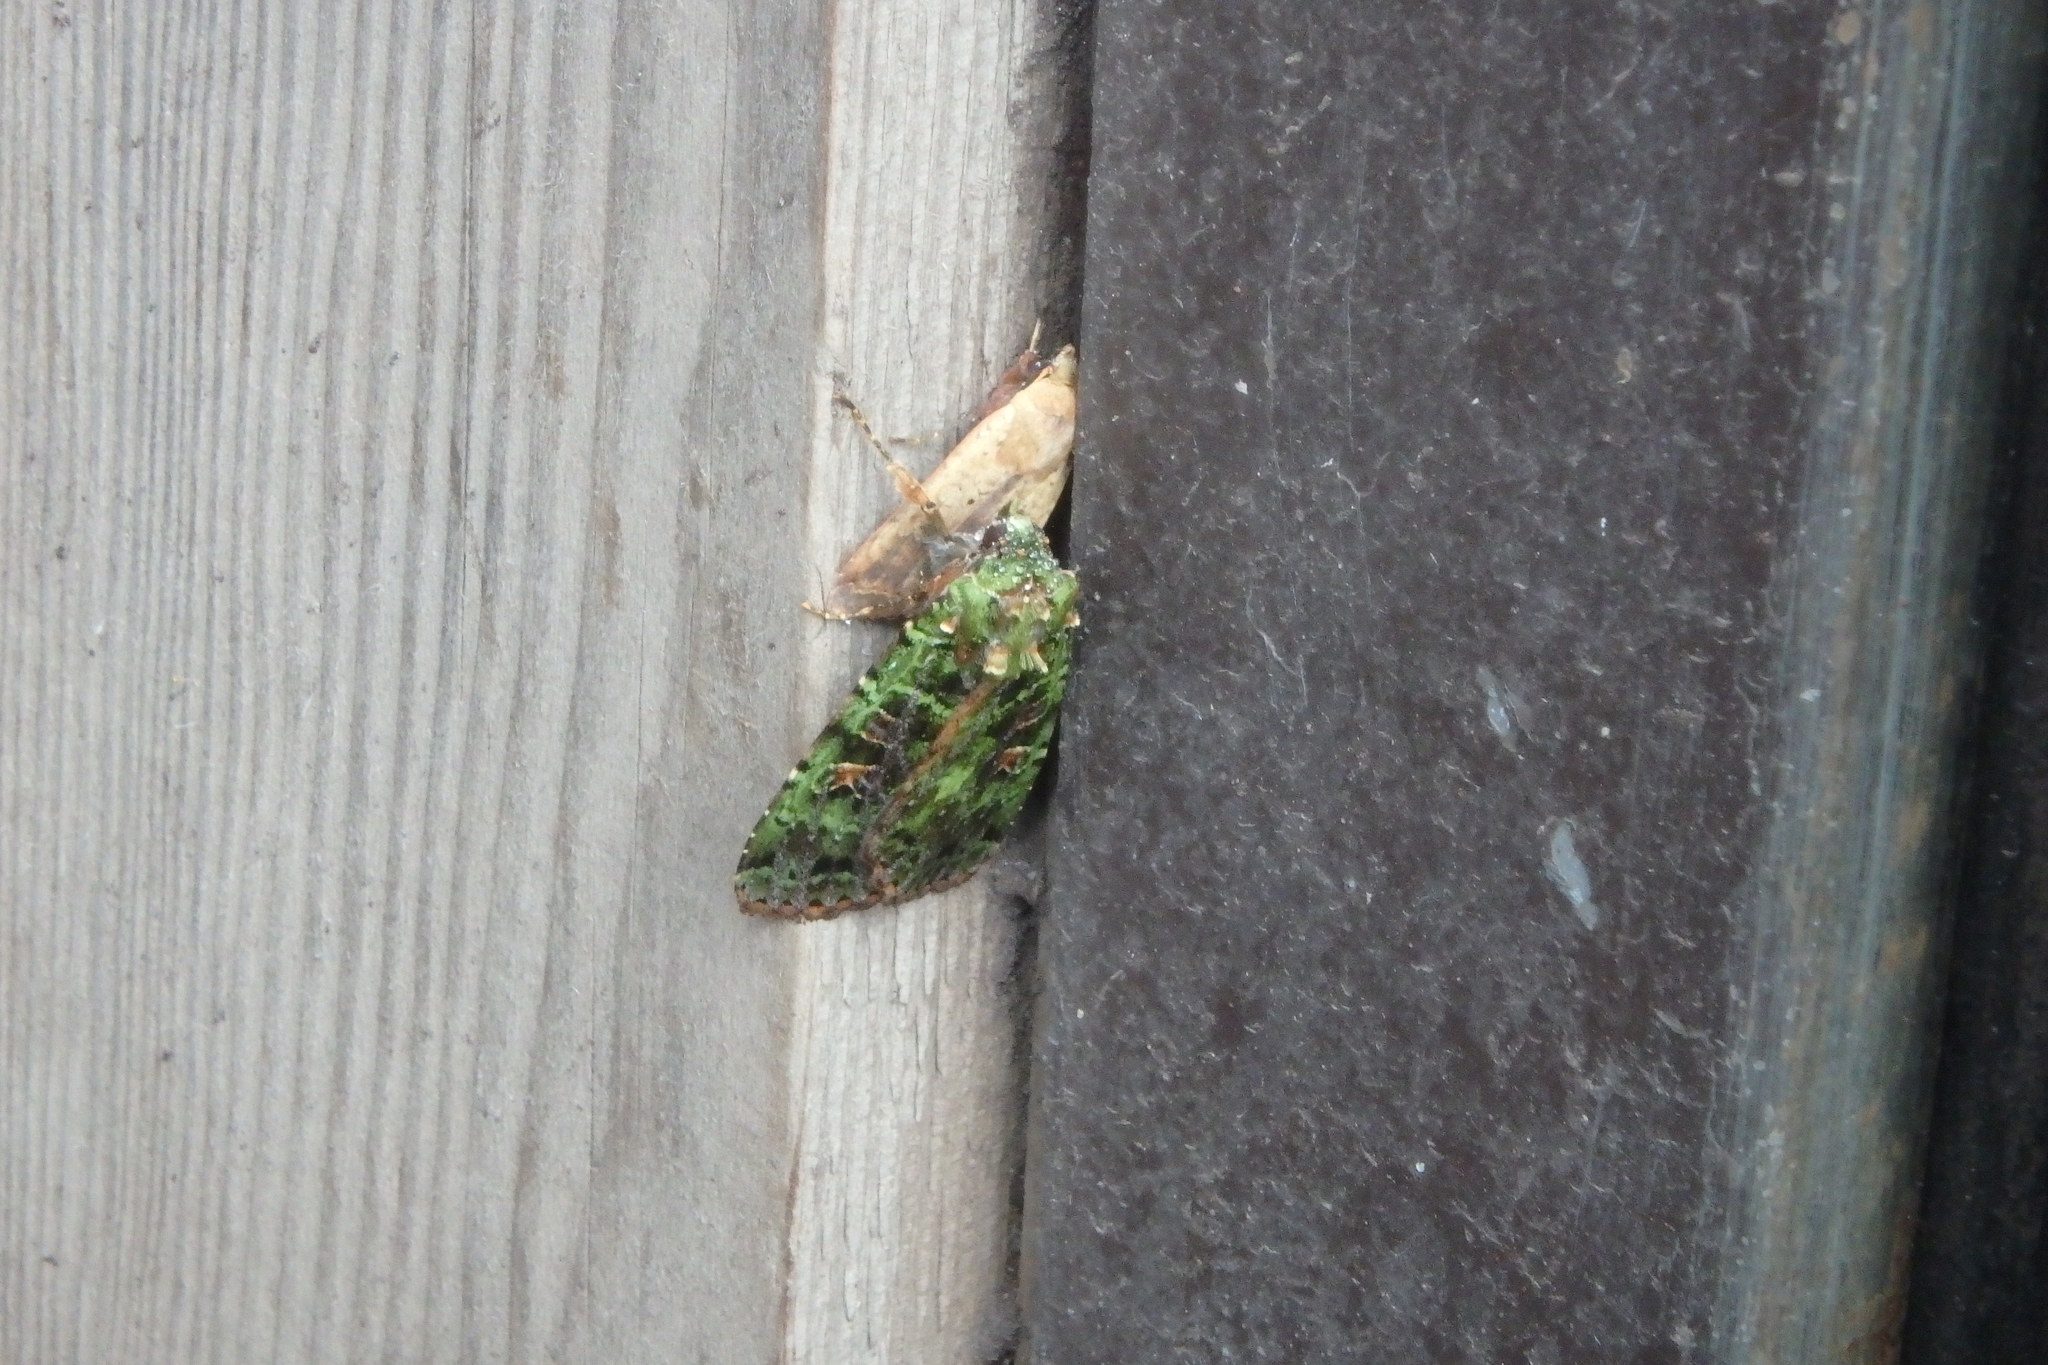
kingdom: Animalia
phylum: Arthropoda
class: Insecta
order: Lepidoptera
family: Noctuidae
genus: Anaplectoides
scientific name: Anaplectoides virens
